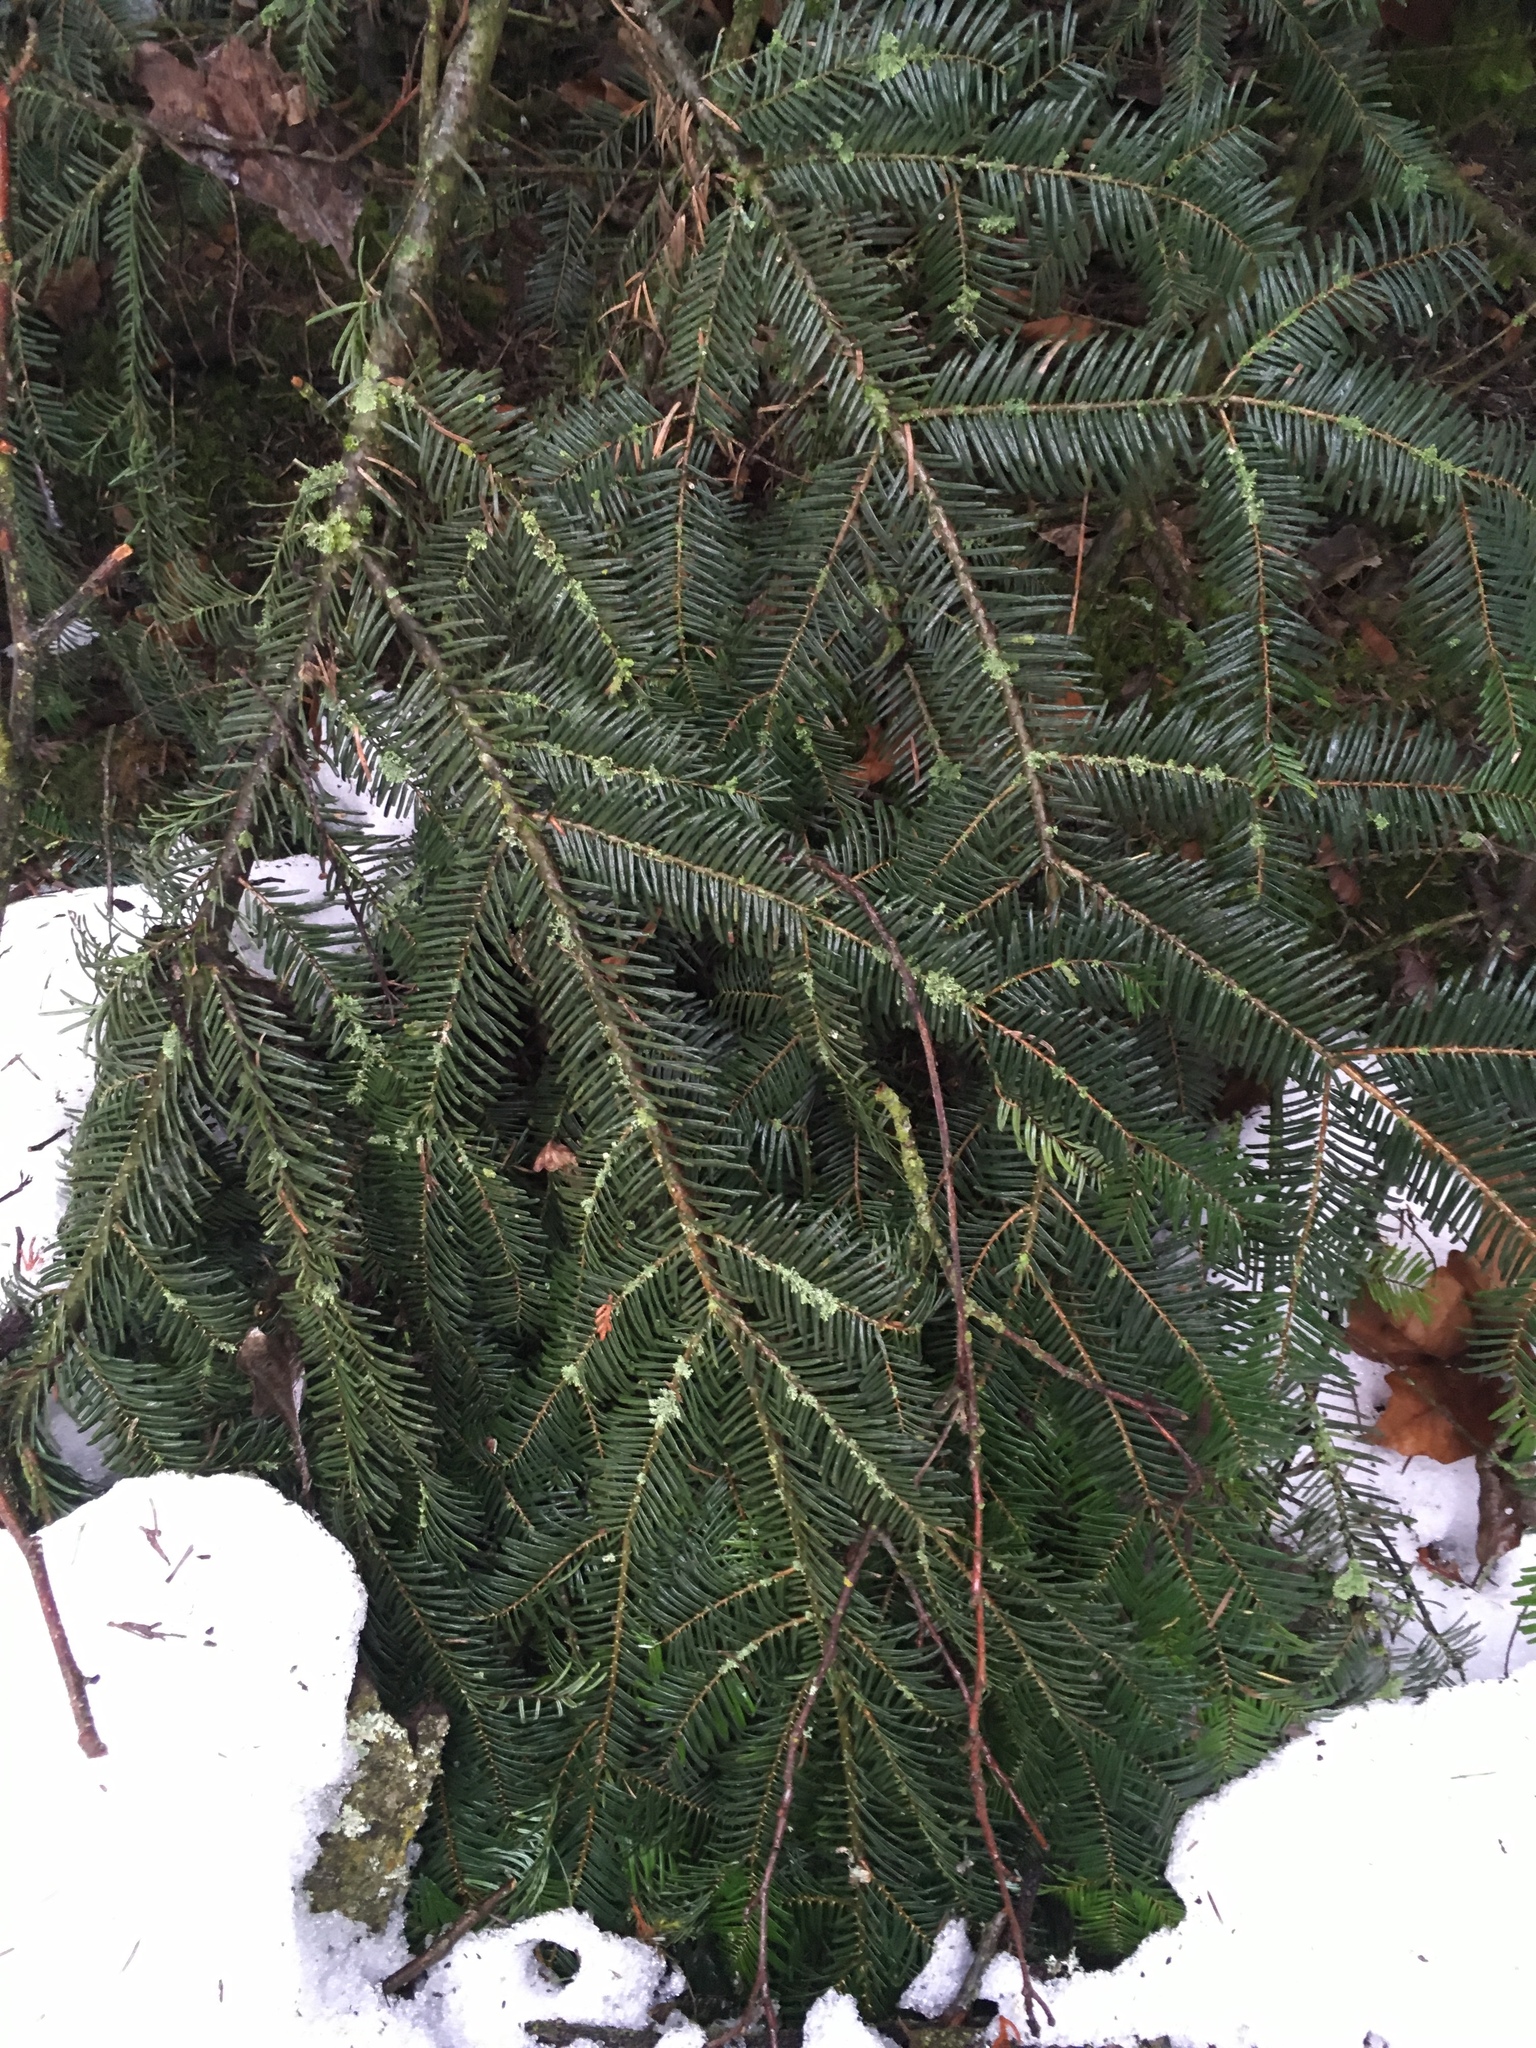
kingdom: Plantae
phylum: Tracheophyta
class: Pinopsida
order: Pinales
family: Pinaceae
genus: Abies
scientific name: Abies grandis
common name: Giant fir
